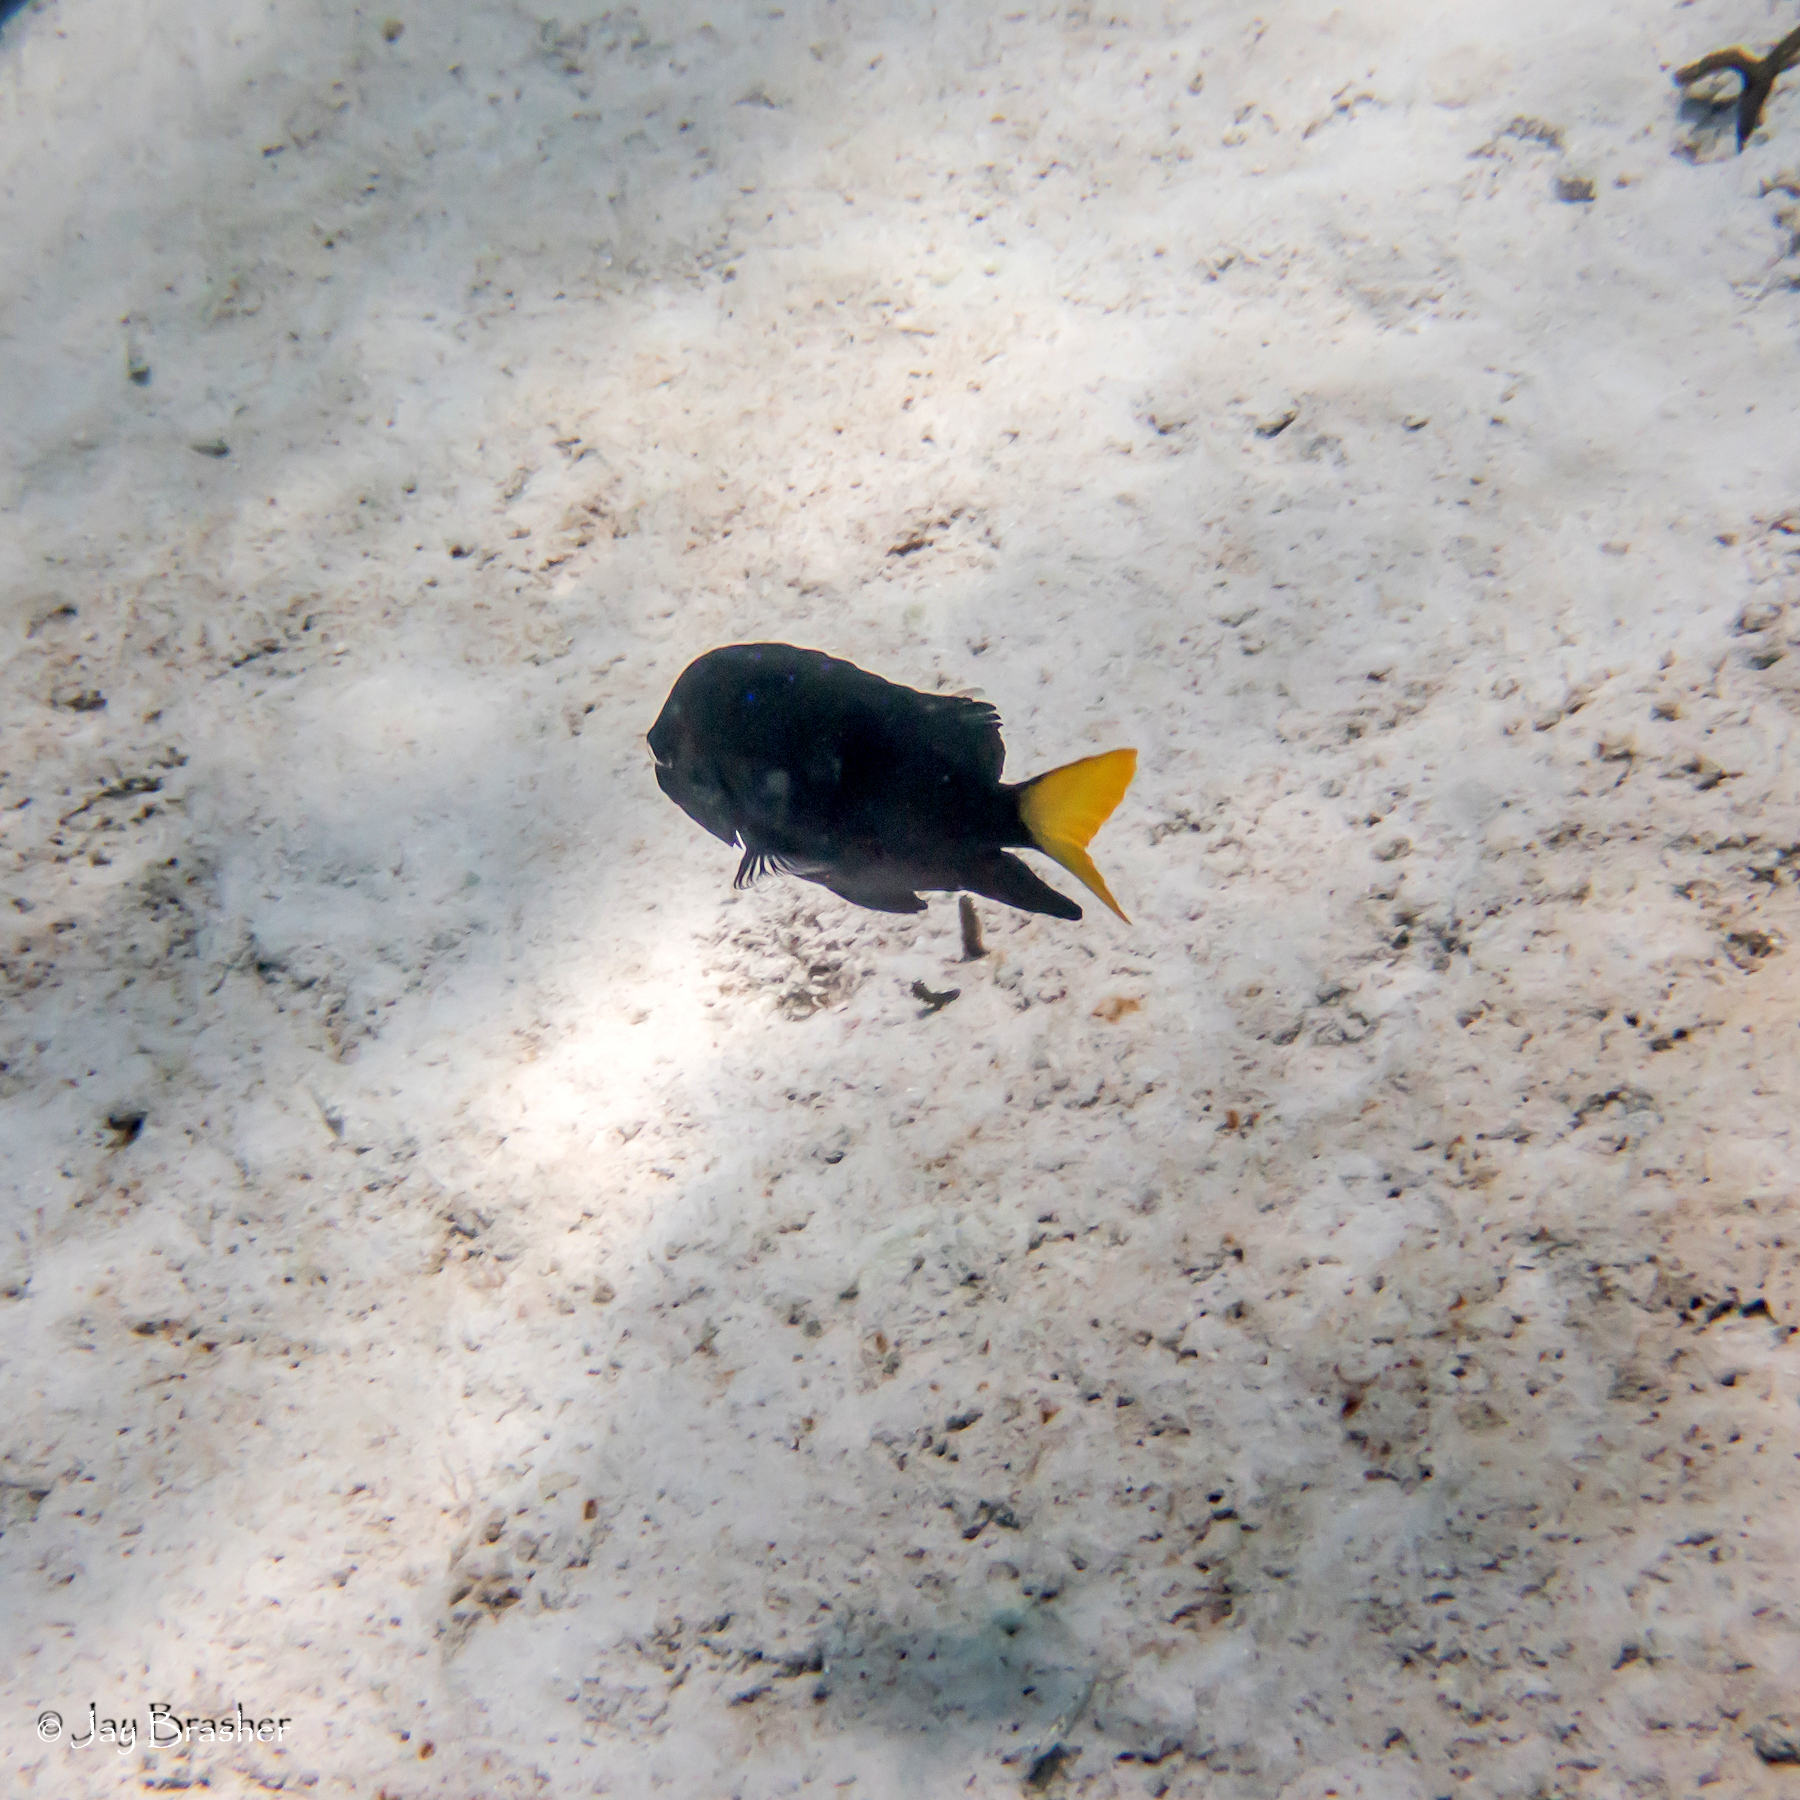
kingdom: Animalia
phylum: Chordata
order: Perciformes
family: Serranidae
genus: Hypoplectrus
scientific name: Hypoplectrus chlorurus
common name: Yellowtail hamlet
